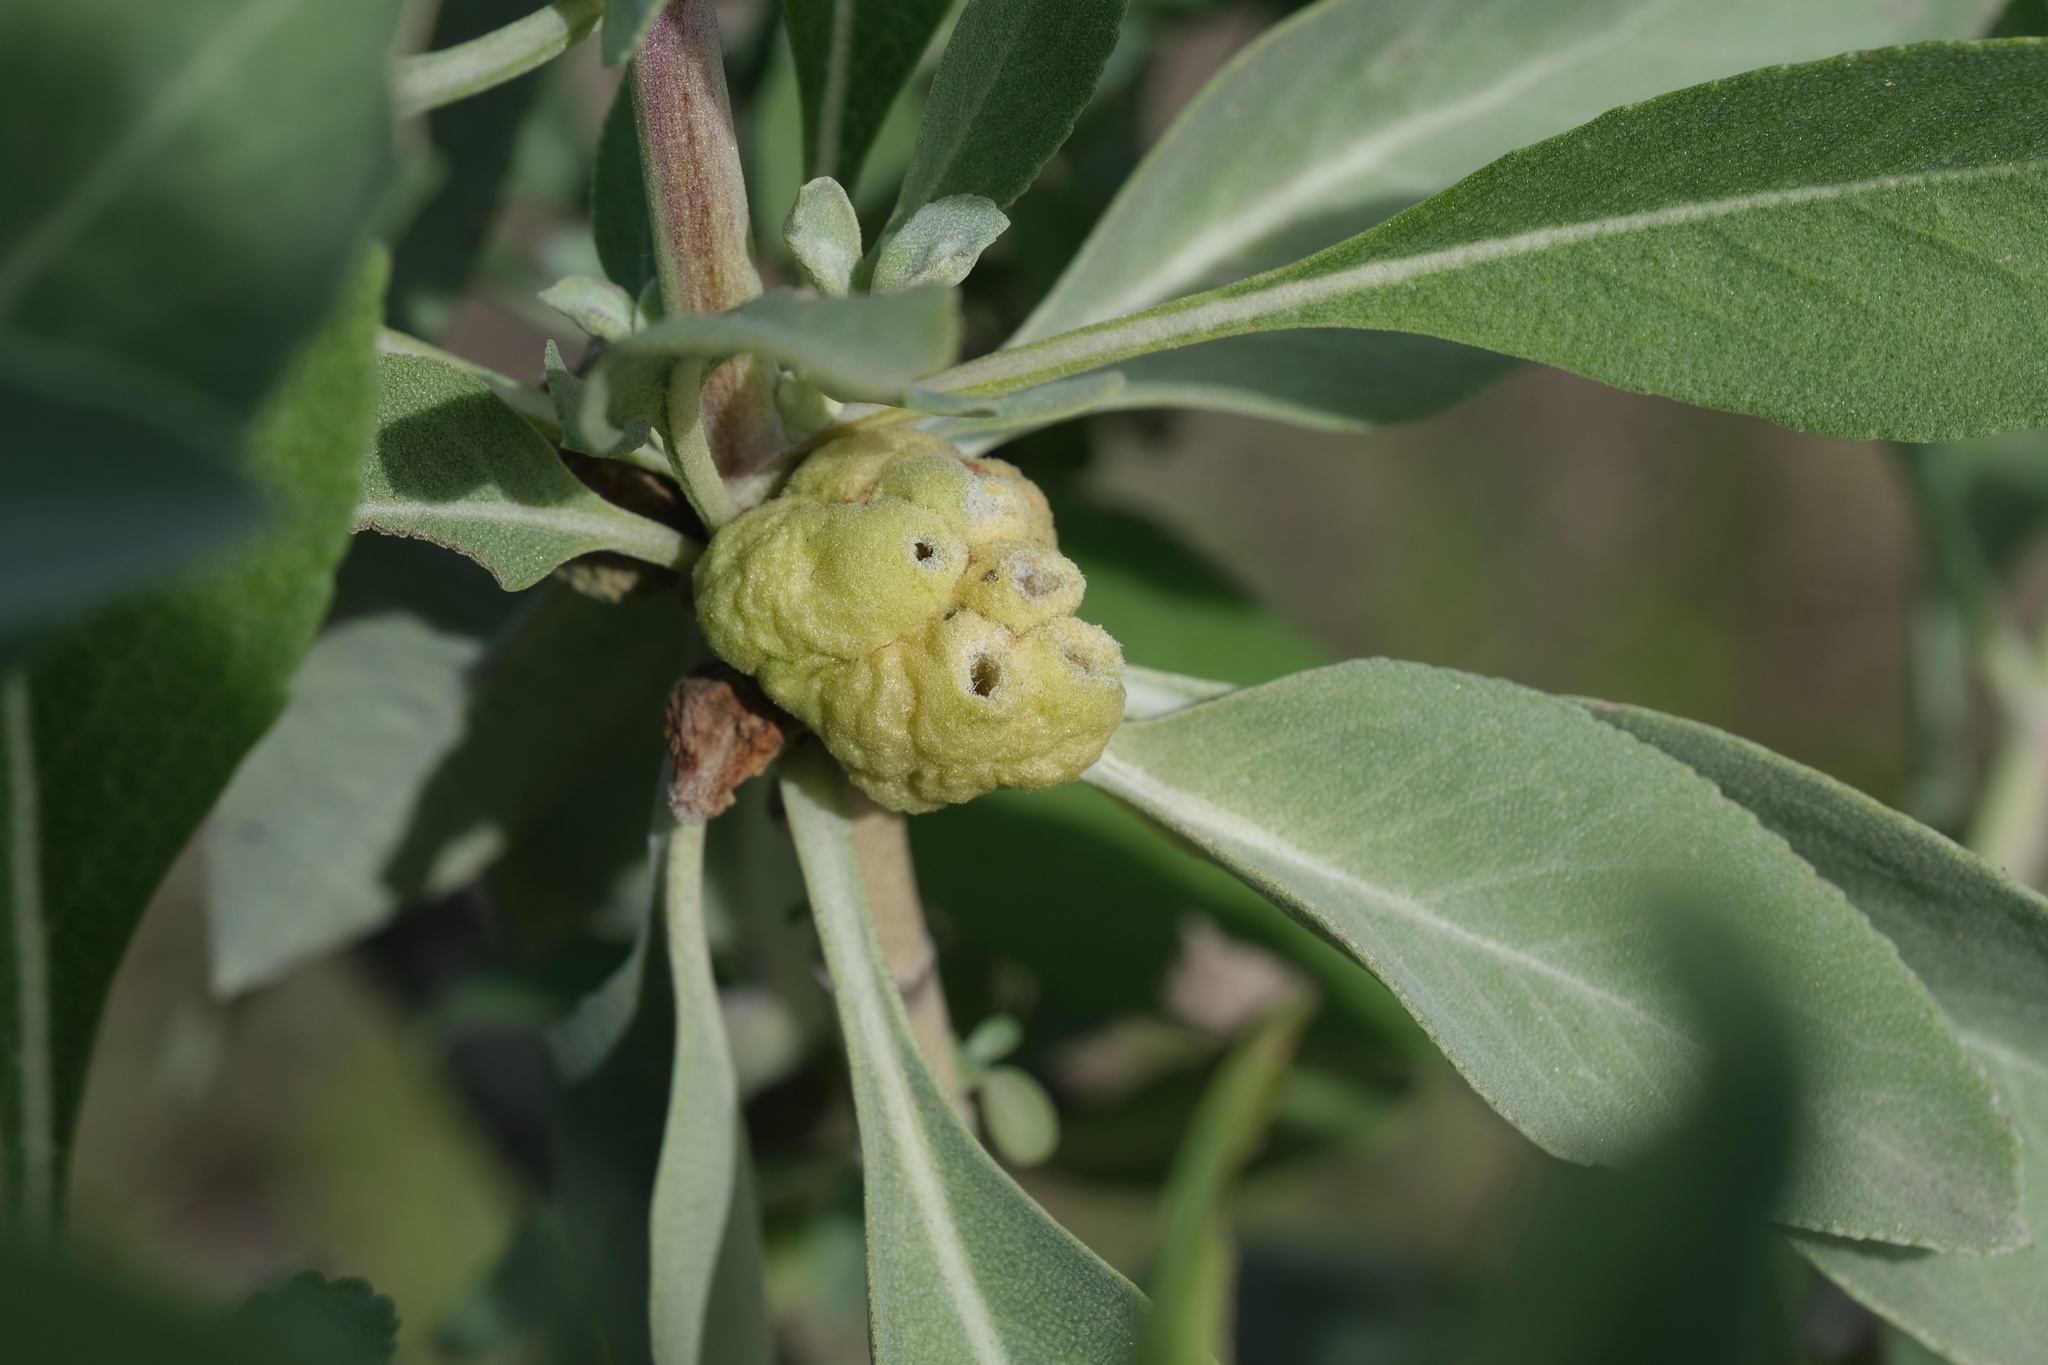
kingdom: Animalia
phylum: Arthropoda
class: Insecta
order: Diptera
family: Cecidomyiidae
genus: Rhopalomyia
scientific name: Rhopalomyia audibertiae
